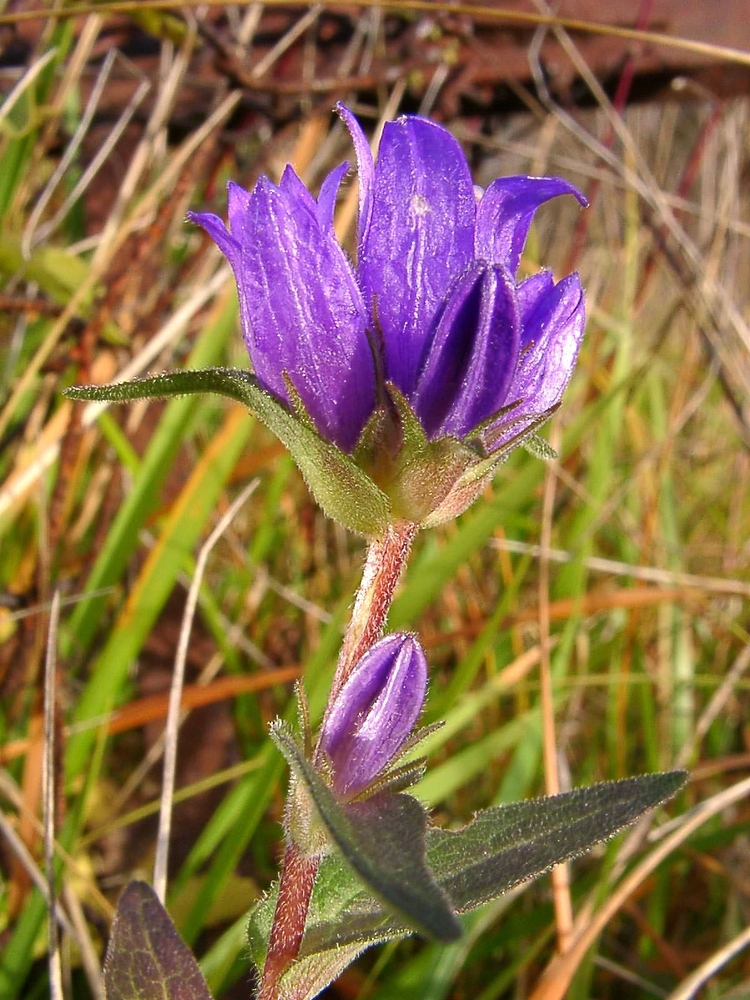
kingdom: Plantae
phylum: Tracheophyta
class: Magnoliopsida
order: Asterales
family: Campanulaceae
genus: Campanula
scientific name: Campanula glomerata
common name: Clustered bellflower
